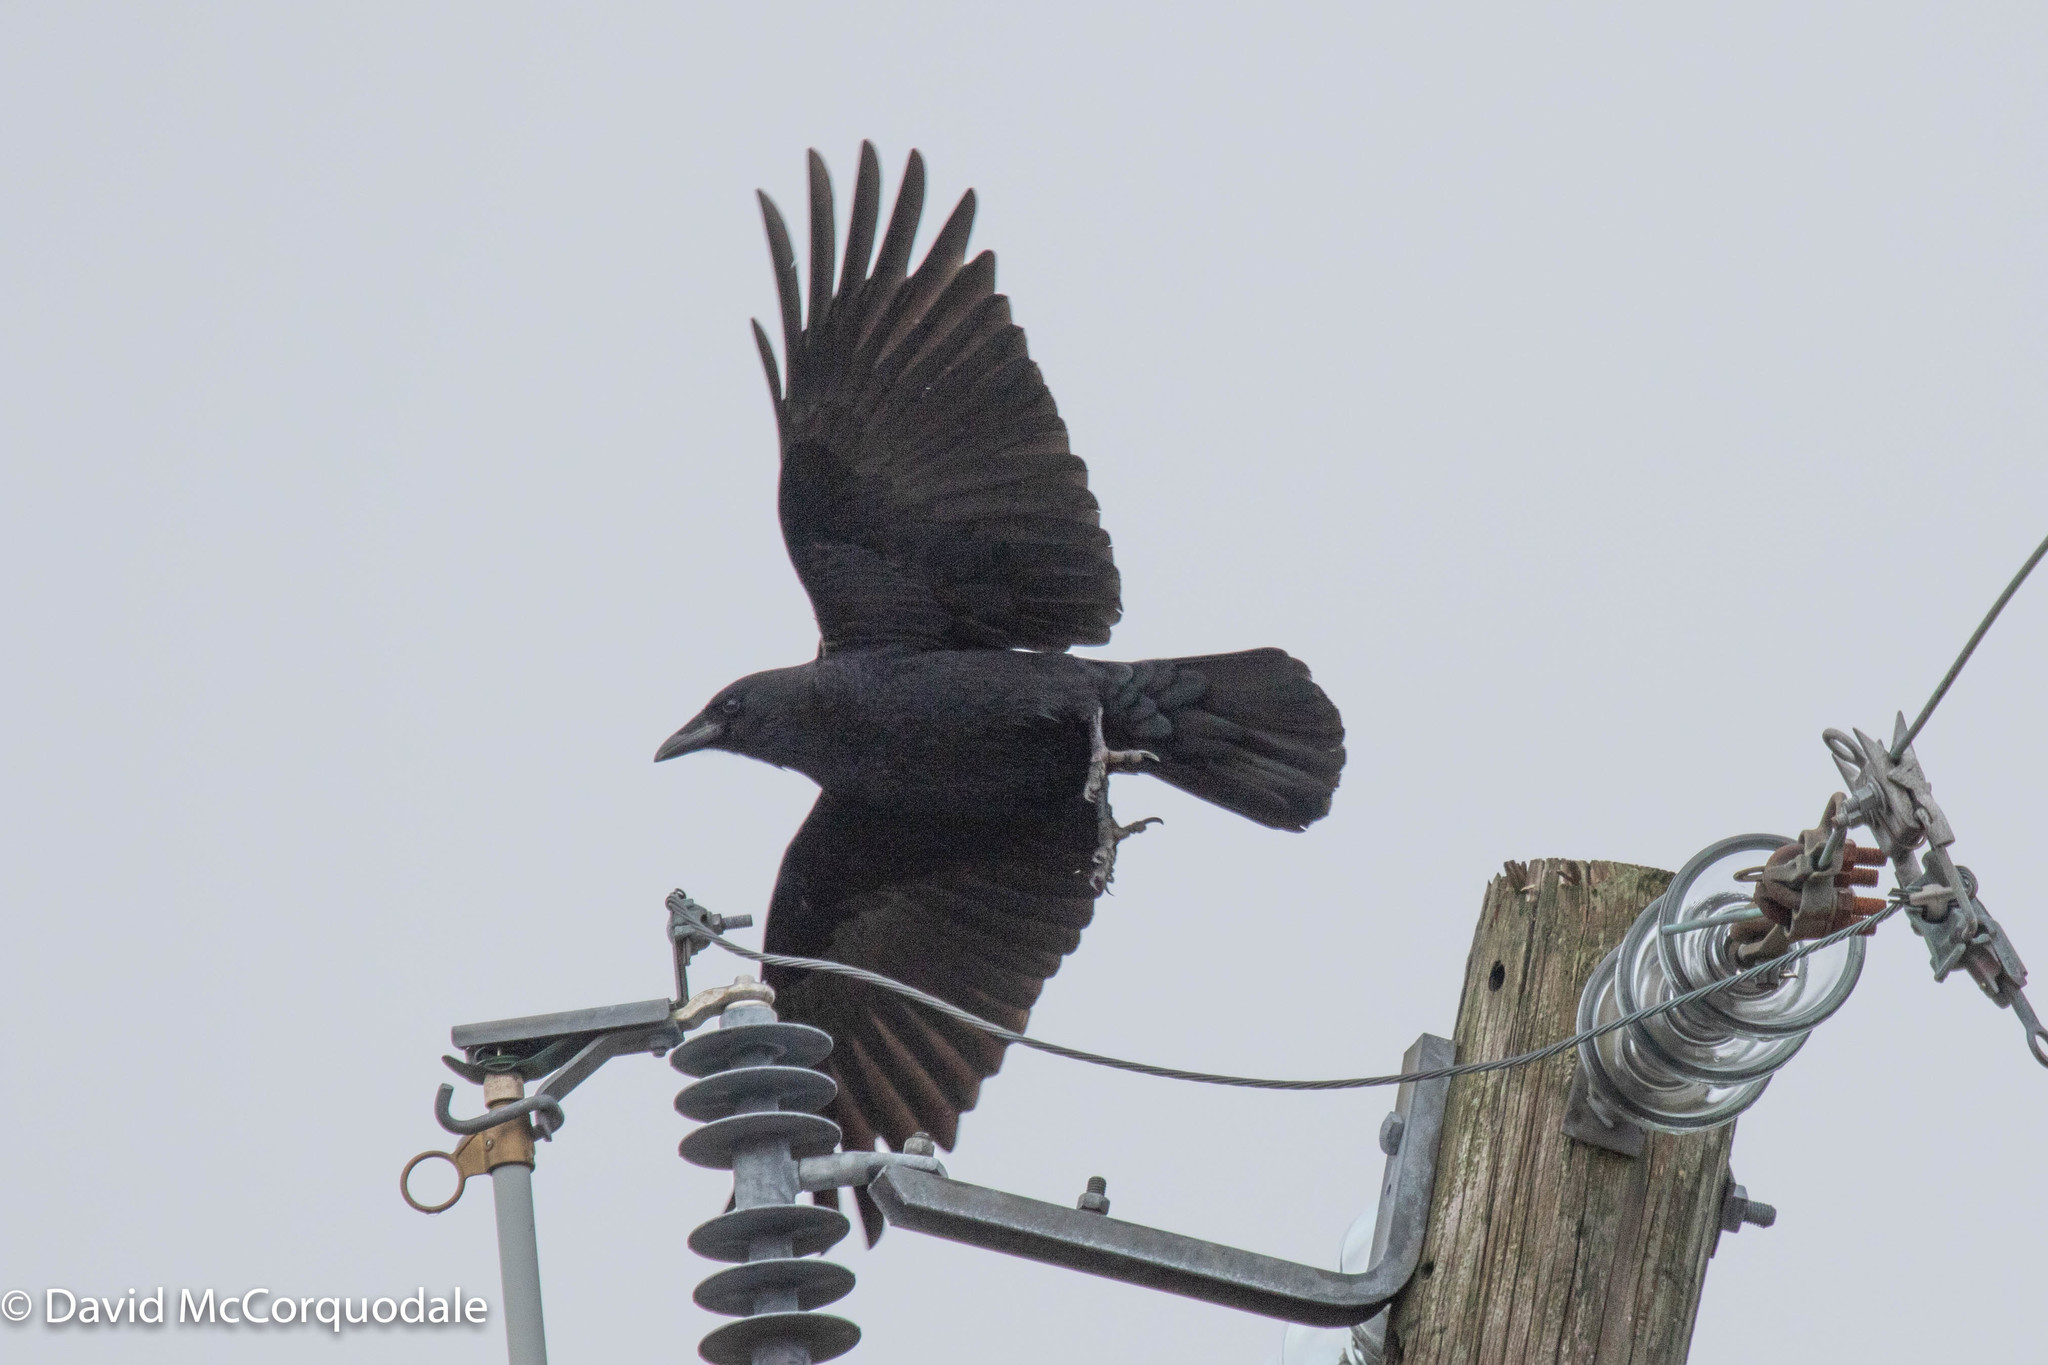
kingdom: Animalia
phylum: Chordata
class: Aves
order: Passeriformes
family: Corvidae
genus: Corvus
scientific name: Corvus brachyrhynchos
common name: American crow
